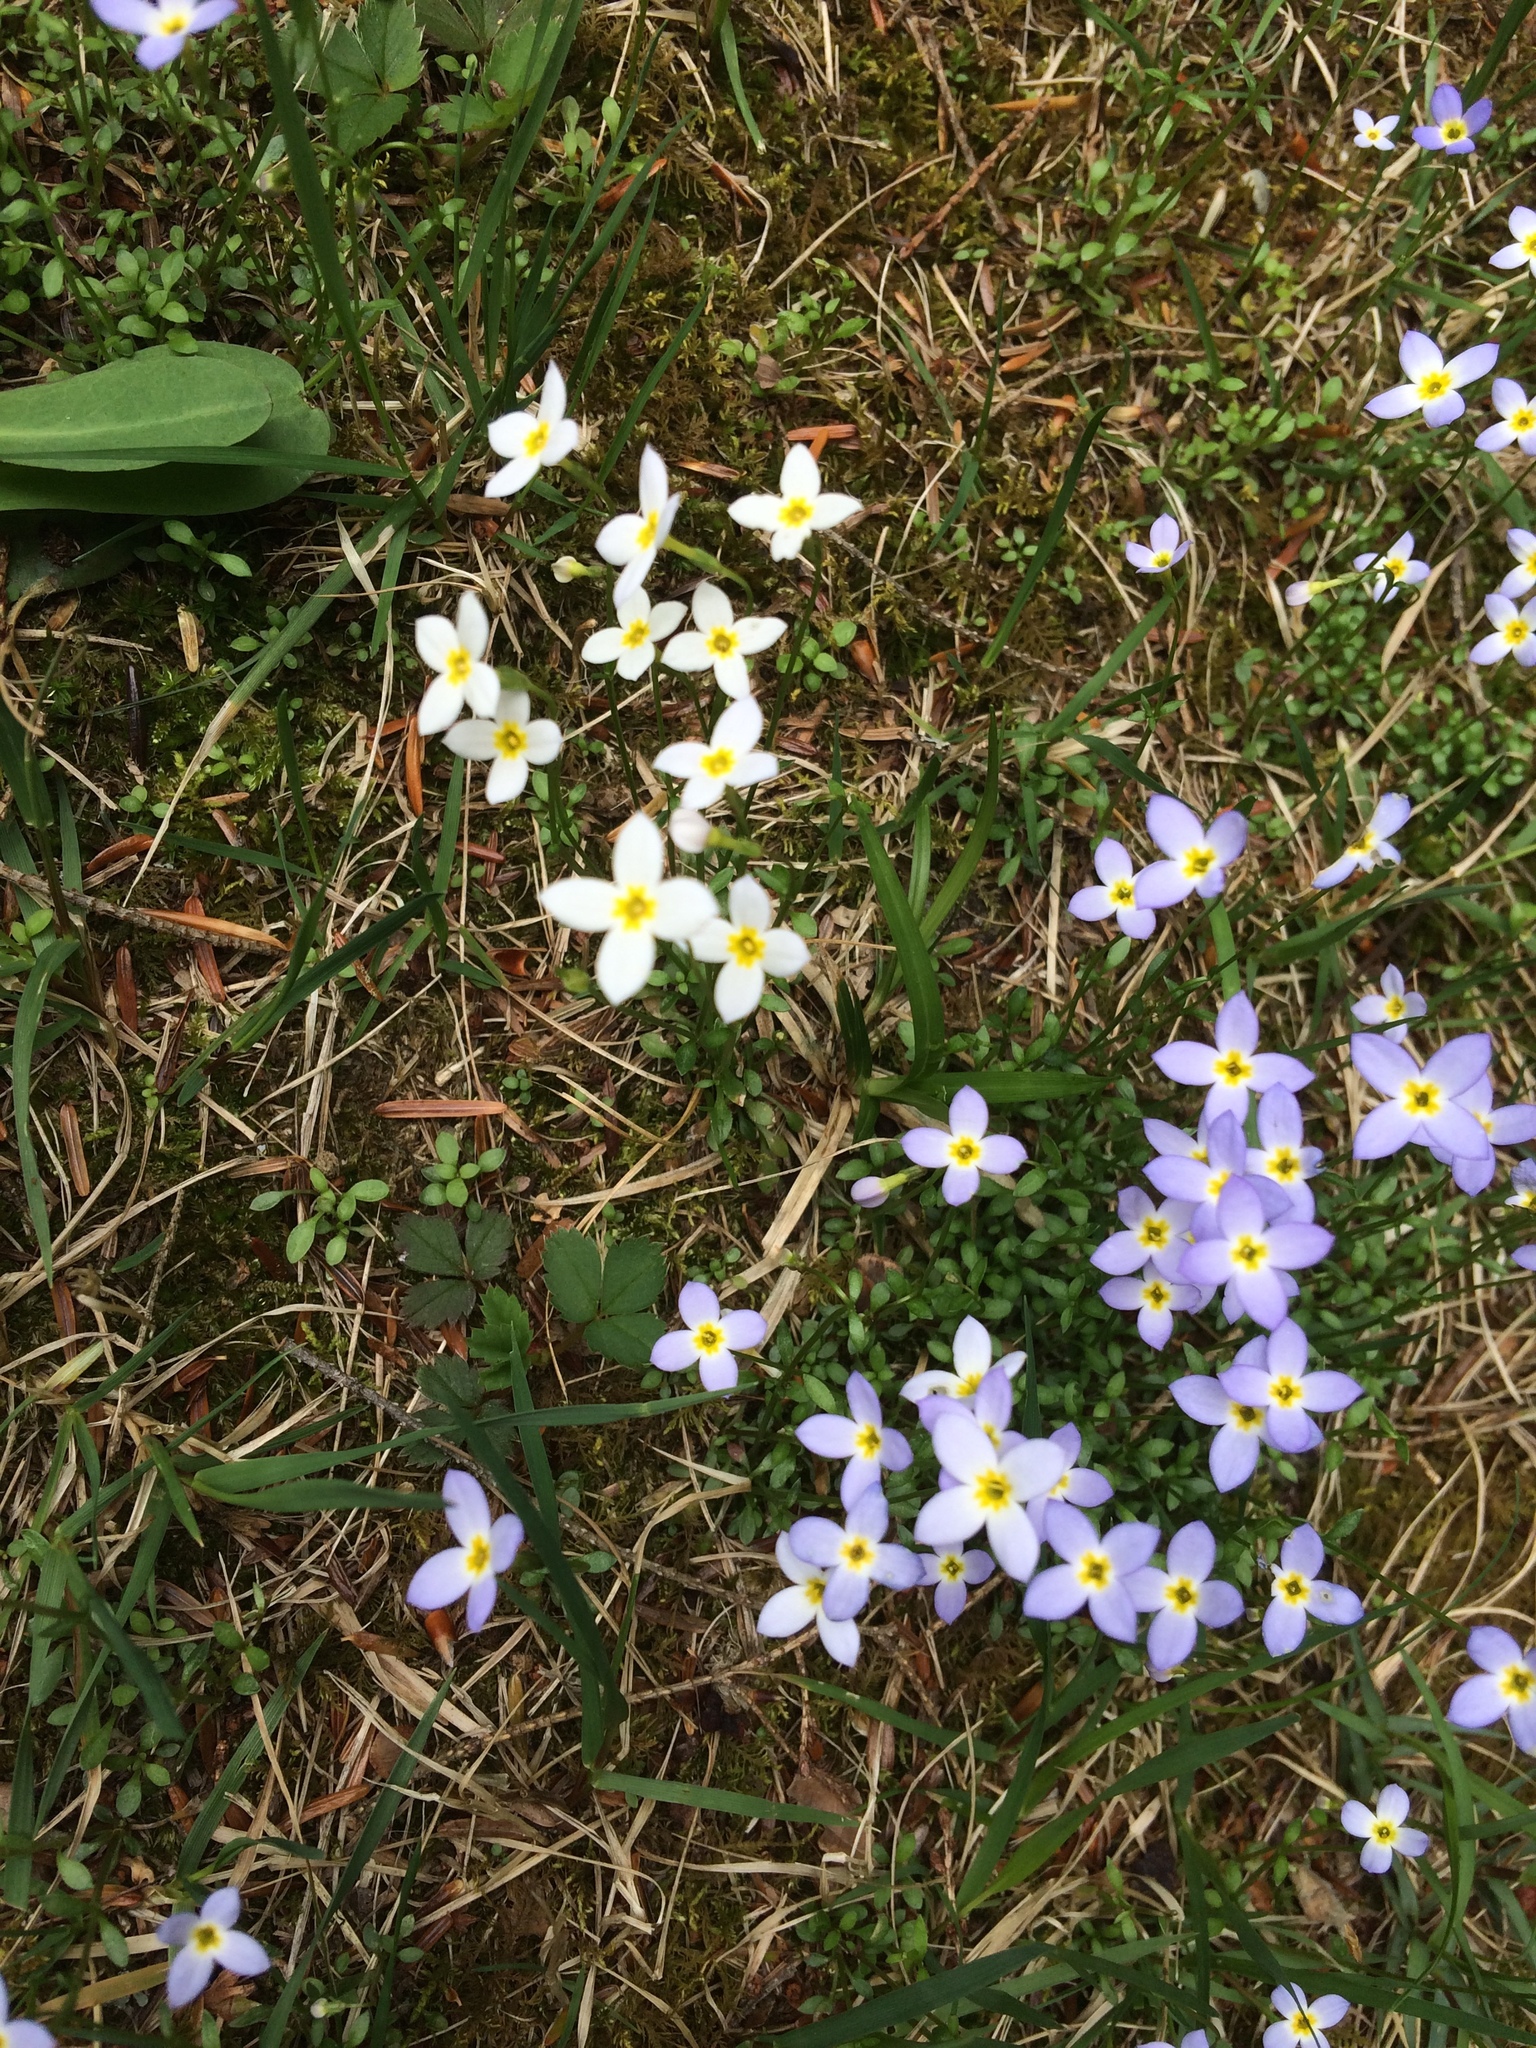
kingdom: Plantae
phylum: Tracheophyta
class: Magnoliopsida
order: Gentianales
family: Rubiaceae
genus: Houstonia
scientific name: Houstonia caerulea
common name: Bluets
